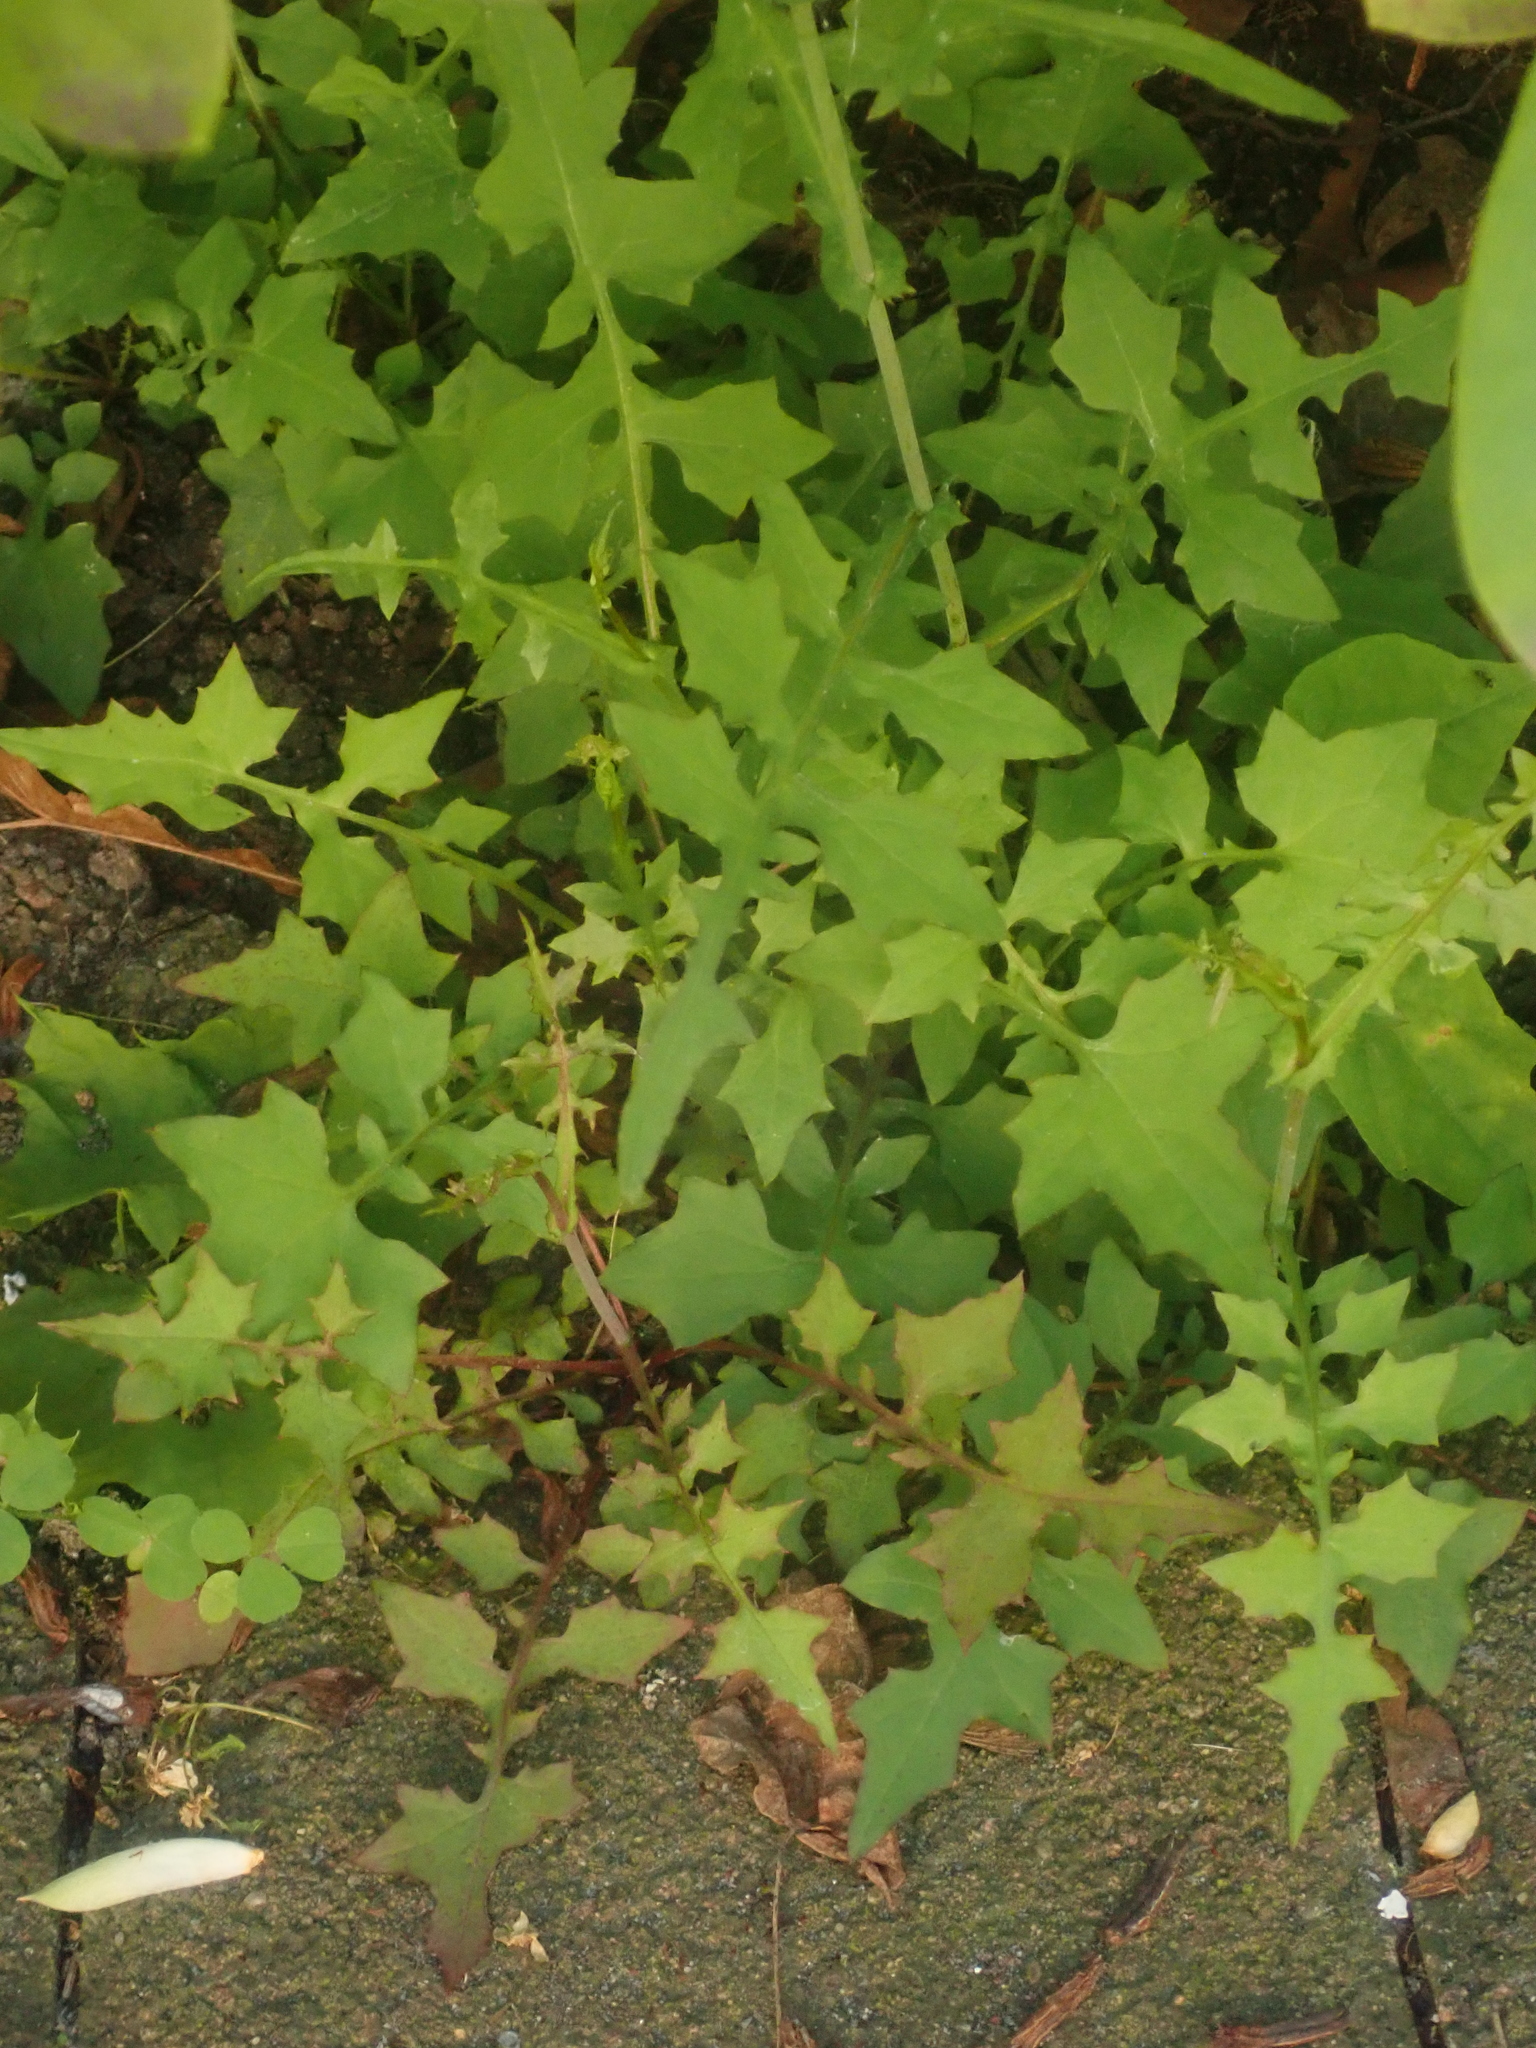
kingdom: Plantae
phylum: Tracheophyta
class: Magnoliopsida
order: Asterales
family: Asteraceae
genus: Mycelis
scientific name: Mycelis muralis
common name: Wall lettuce
